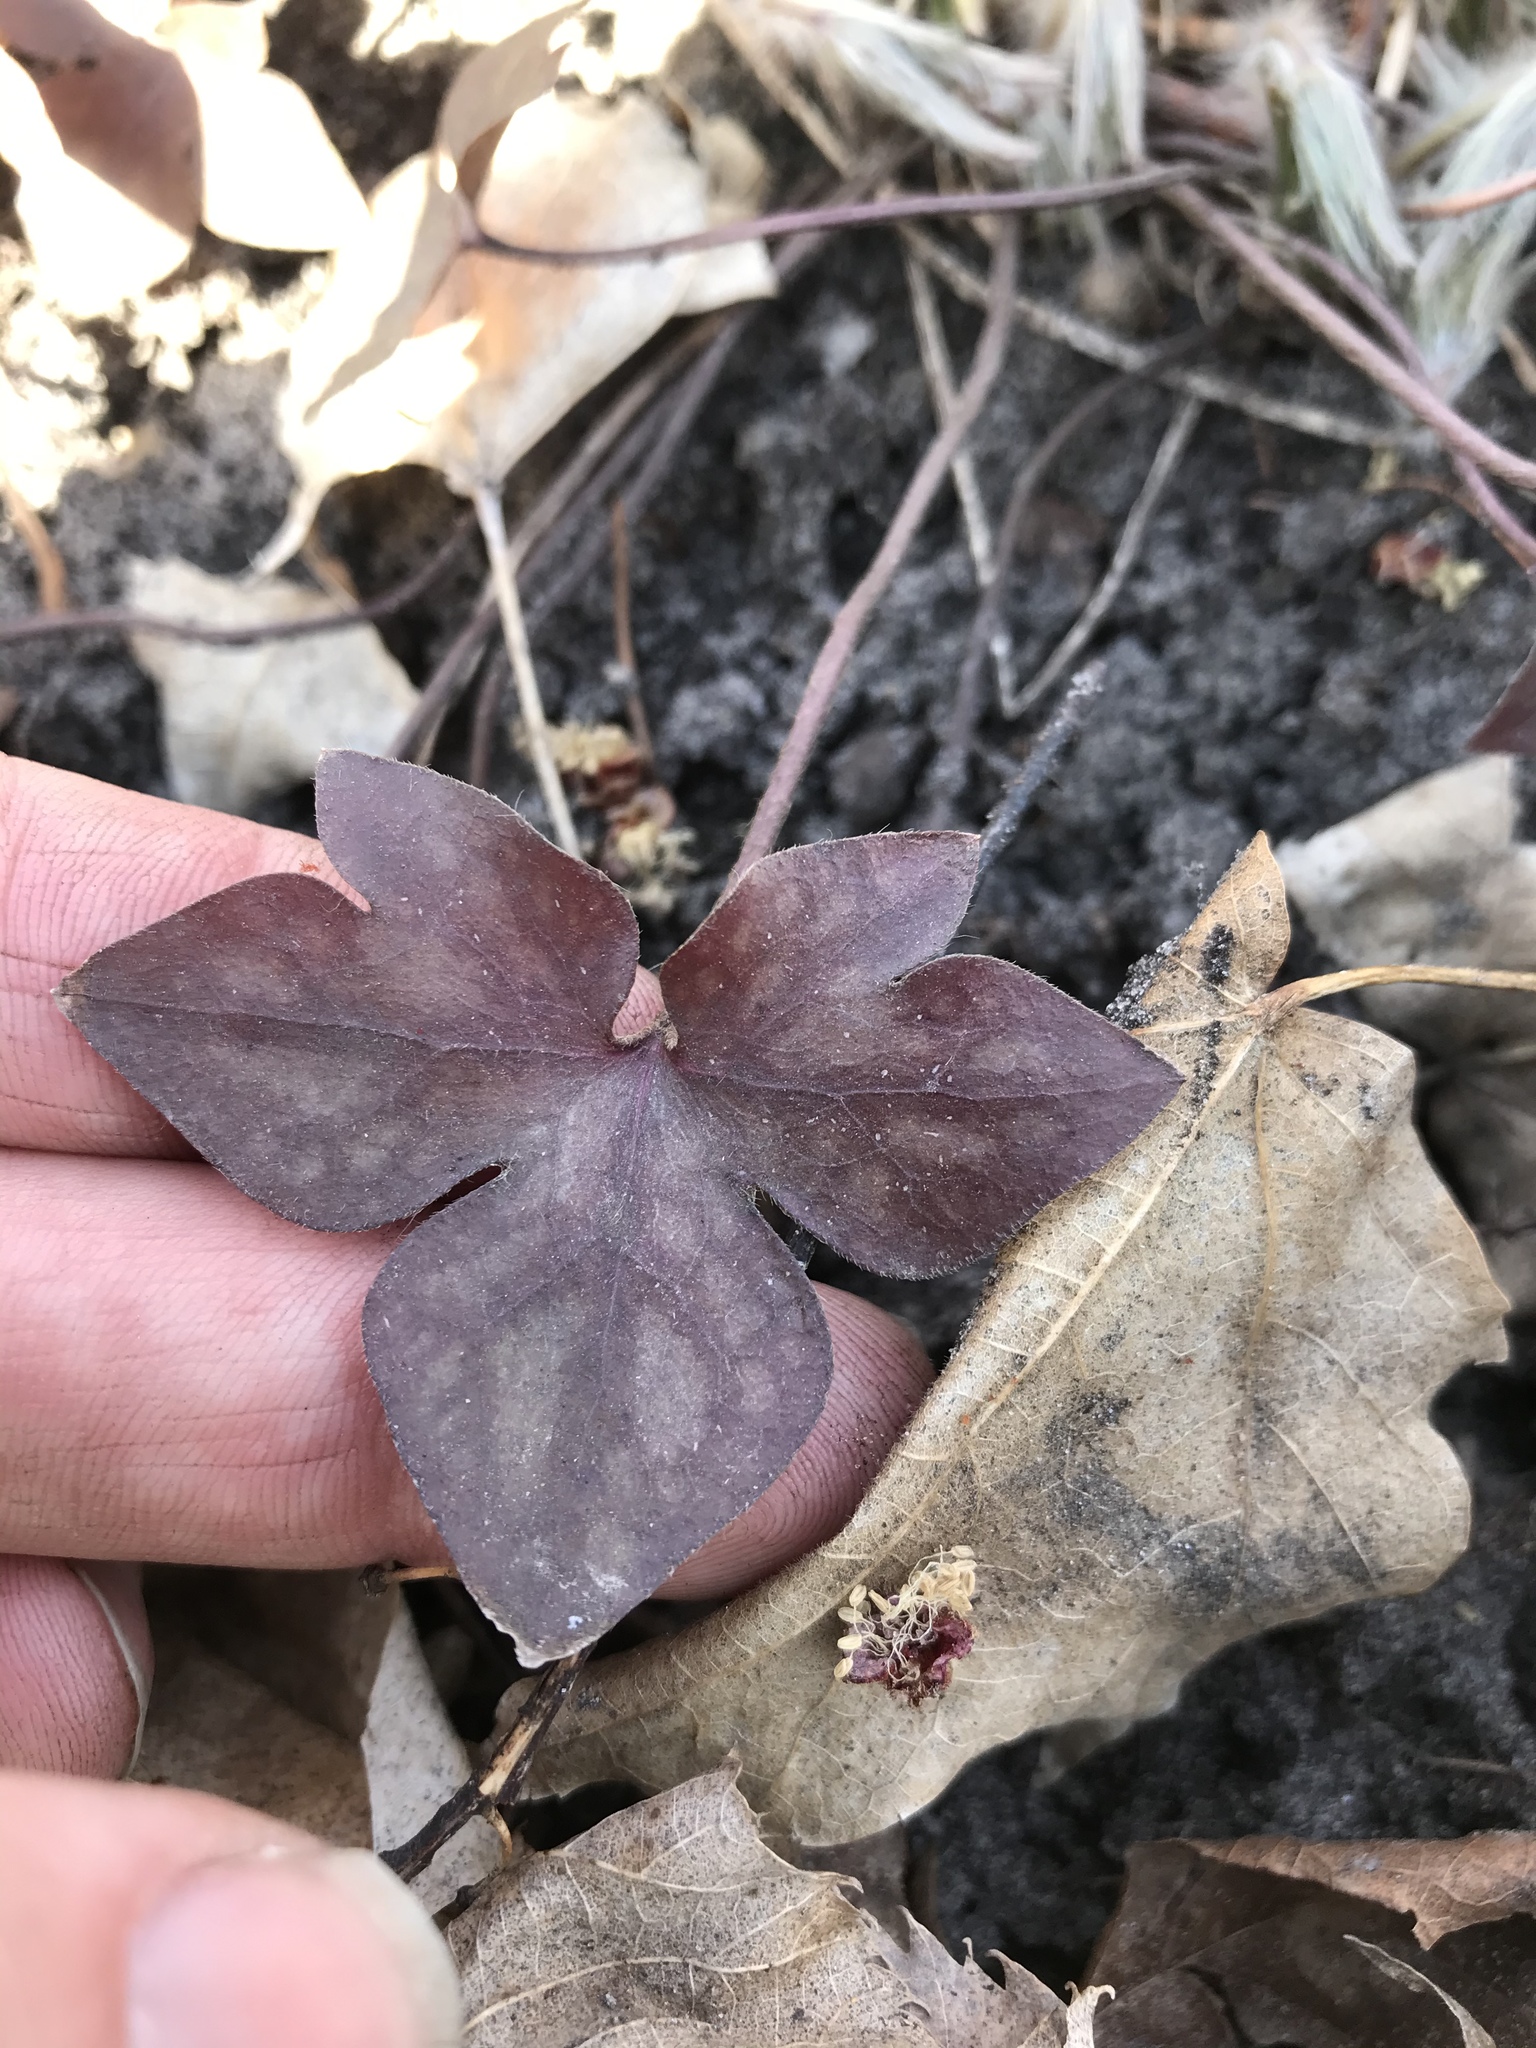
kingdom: Plantae
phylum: Tracheophyta
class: Magnoliopsida
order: Ranunculales
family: Ranunculaceae
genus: Hepatica
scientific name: Hepatica acutiloba
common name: Sharp-lobed hepatica
